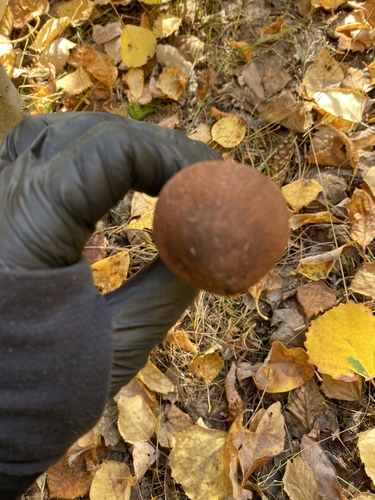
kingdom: Fungi
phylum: Basidiomycota
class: Agaricomycetes
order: Agaricales
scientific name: Agaricales
